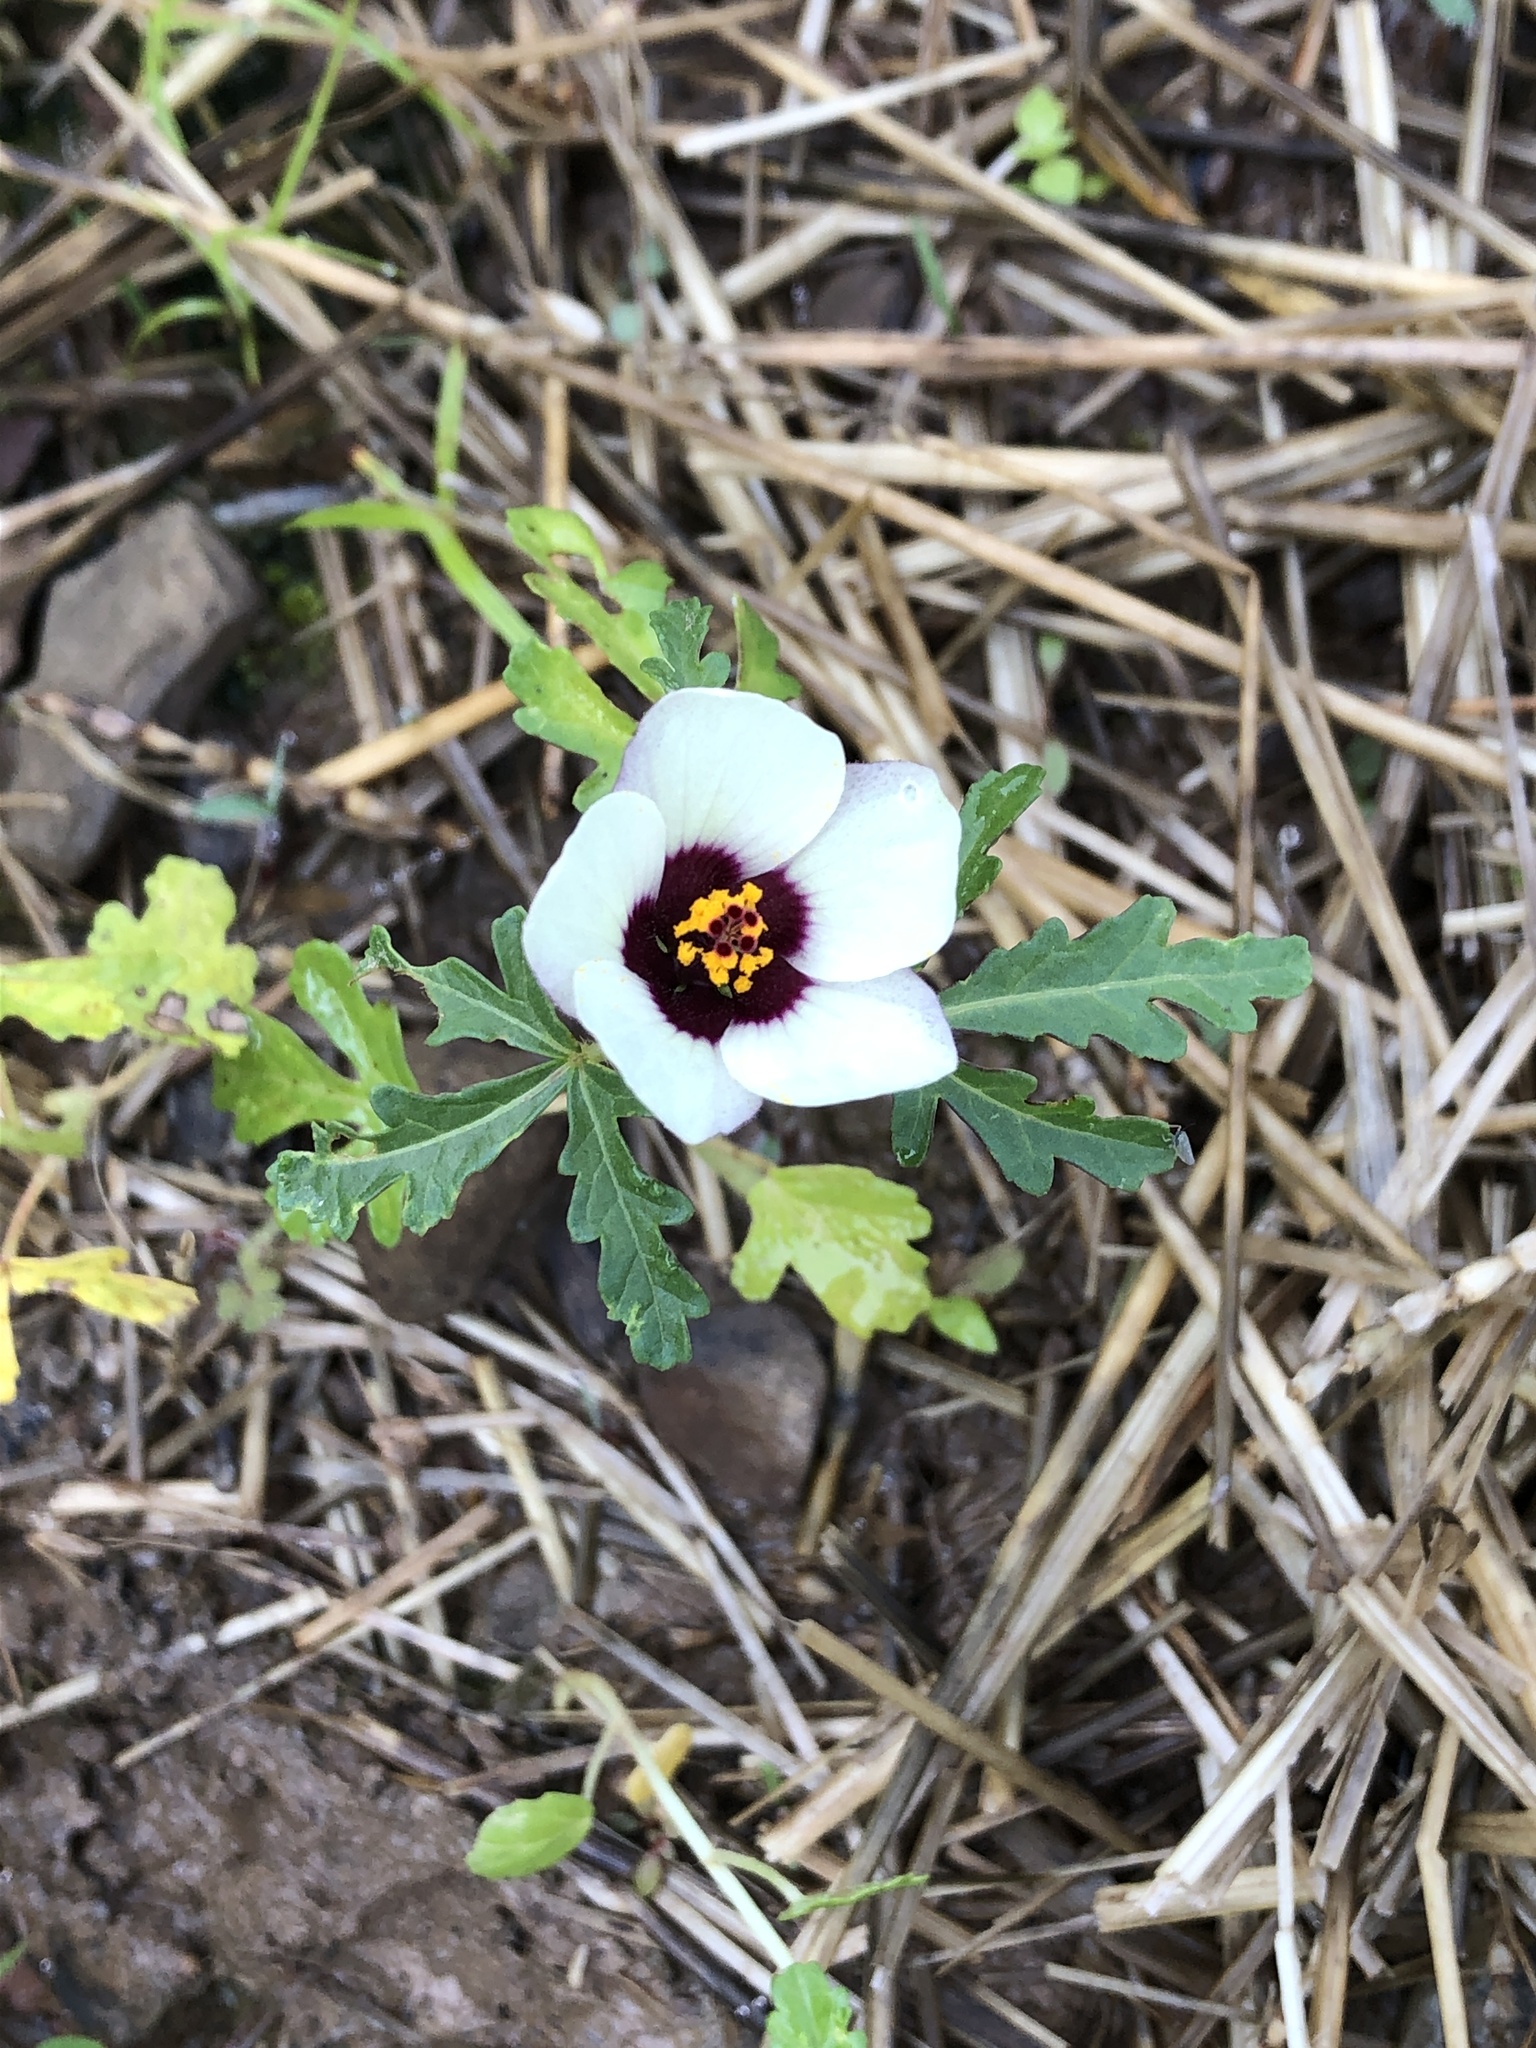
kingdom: Plantae
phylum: Tracheophyta
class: Magnoliopsida
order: Malvales
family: Malvaceae
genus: Hibiscus
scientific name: Hibiscus trionum
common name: Bladder ketmia
